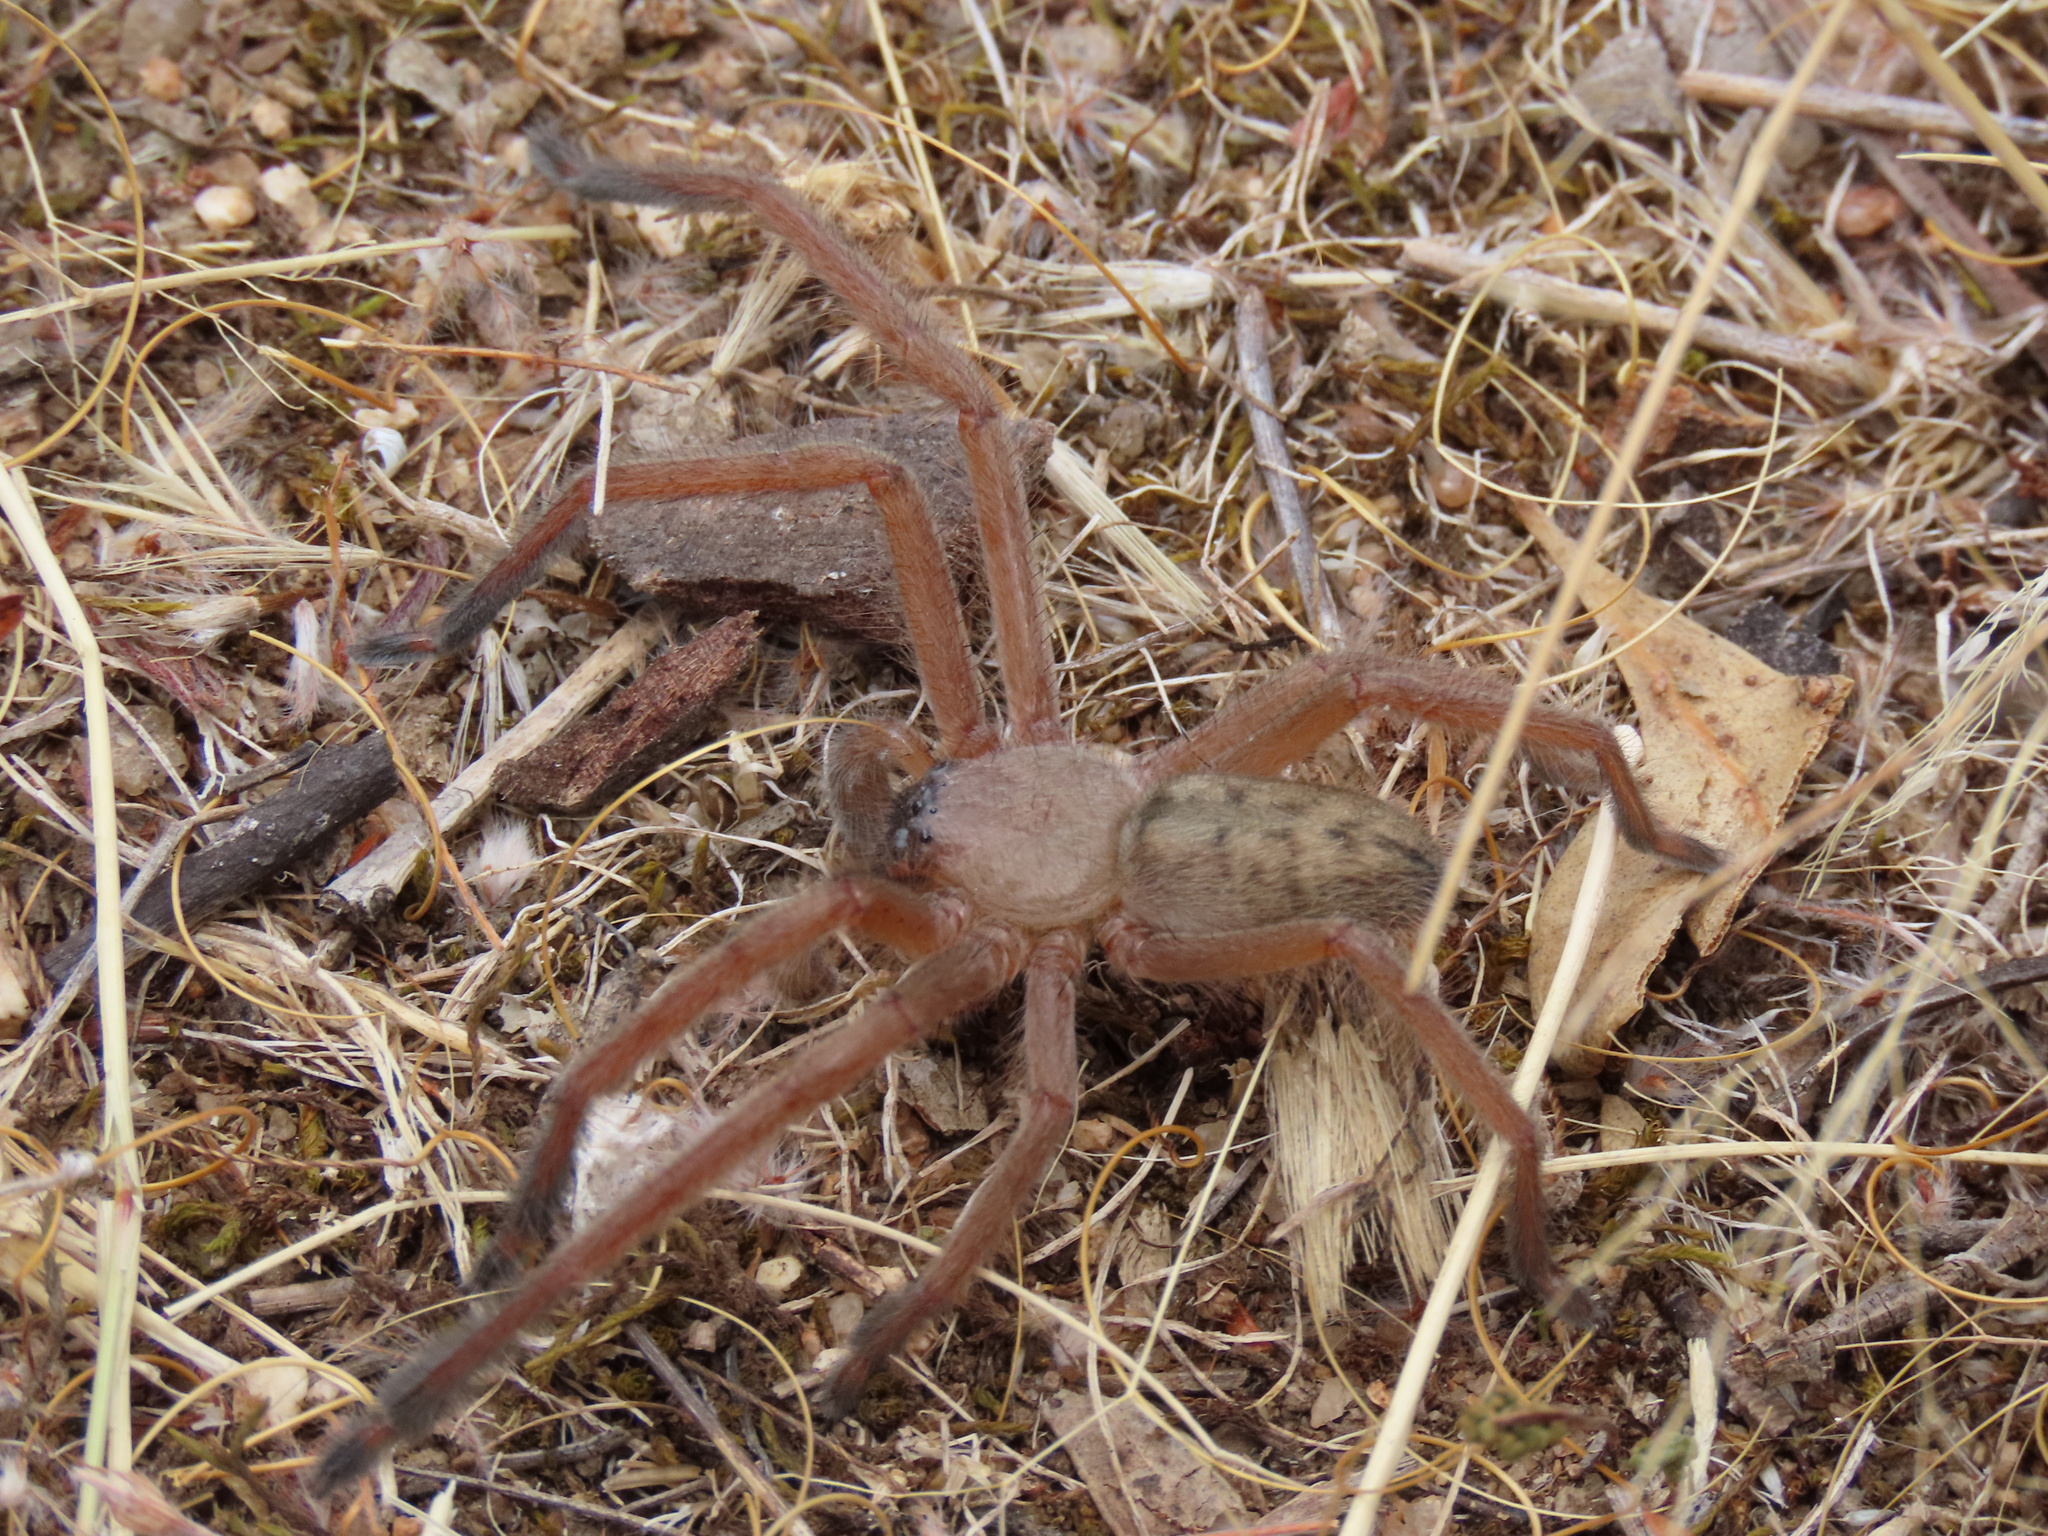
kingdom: Animalia
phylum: Arthropoda
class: Arachnida
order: Araneae
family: Sparassidae
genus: Delena
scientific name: Delena cancerides
